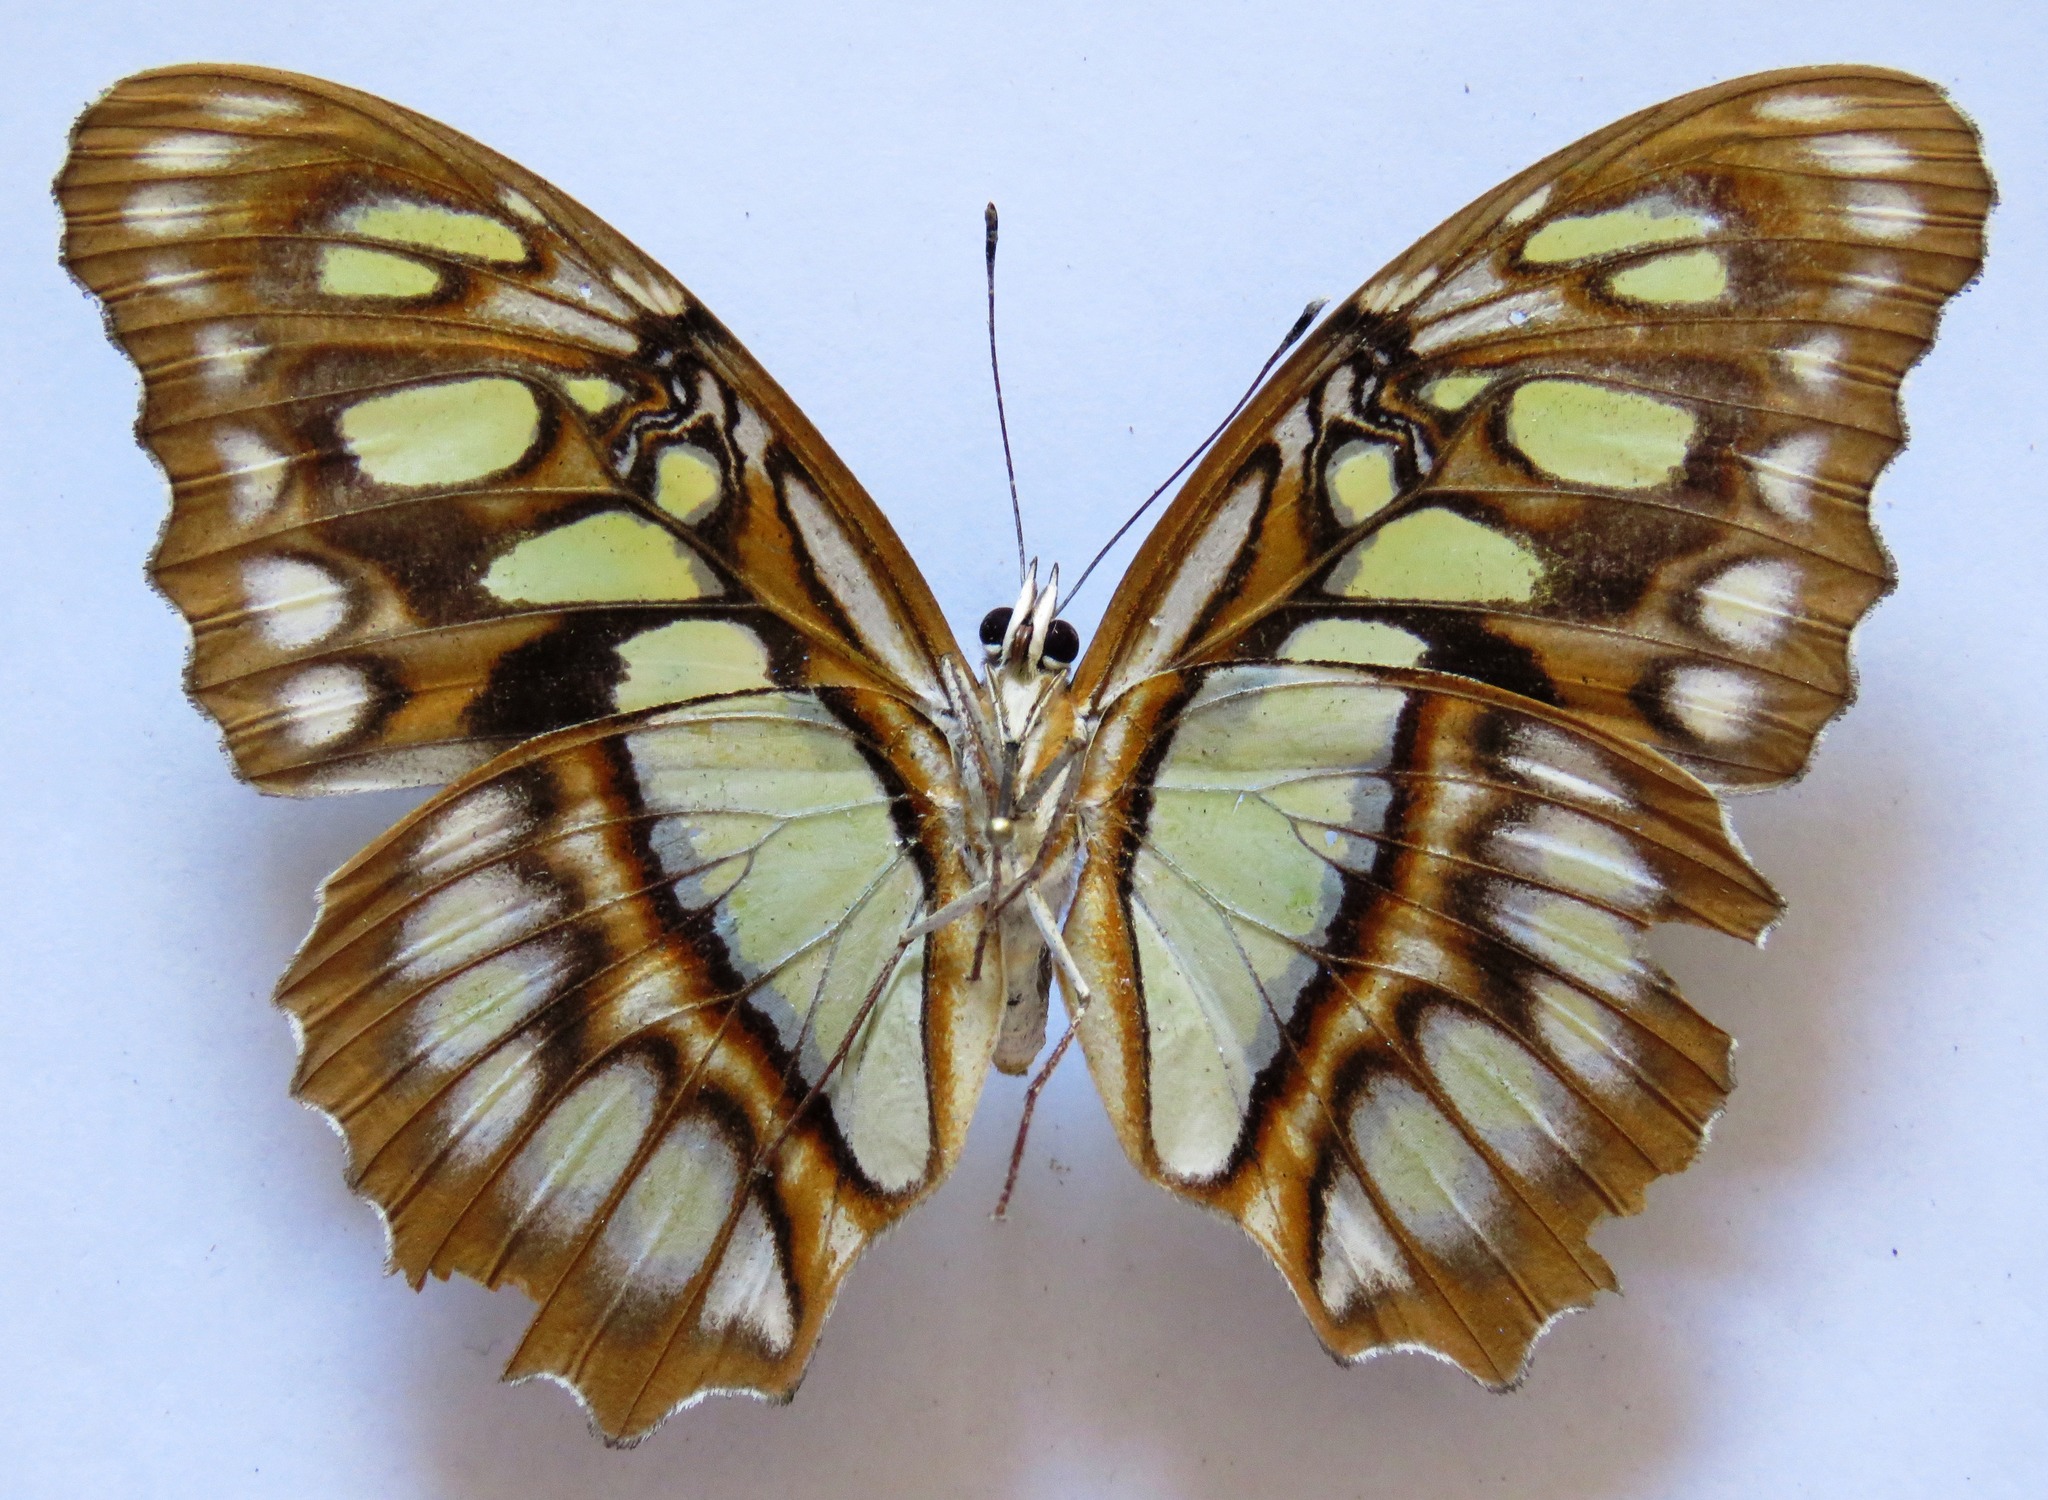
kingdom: Animalia
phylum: Arthropoda
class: Insecta
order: Lepidoptera
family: Nymphalidae
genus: Siproeta
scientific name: Siproeta stelenes
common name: Malachite
